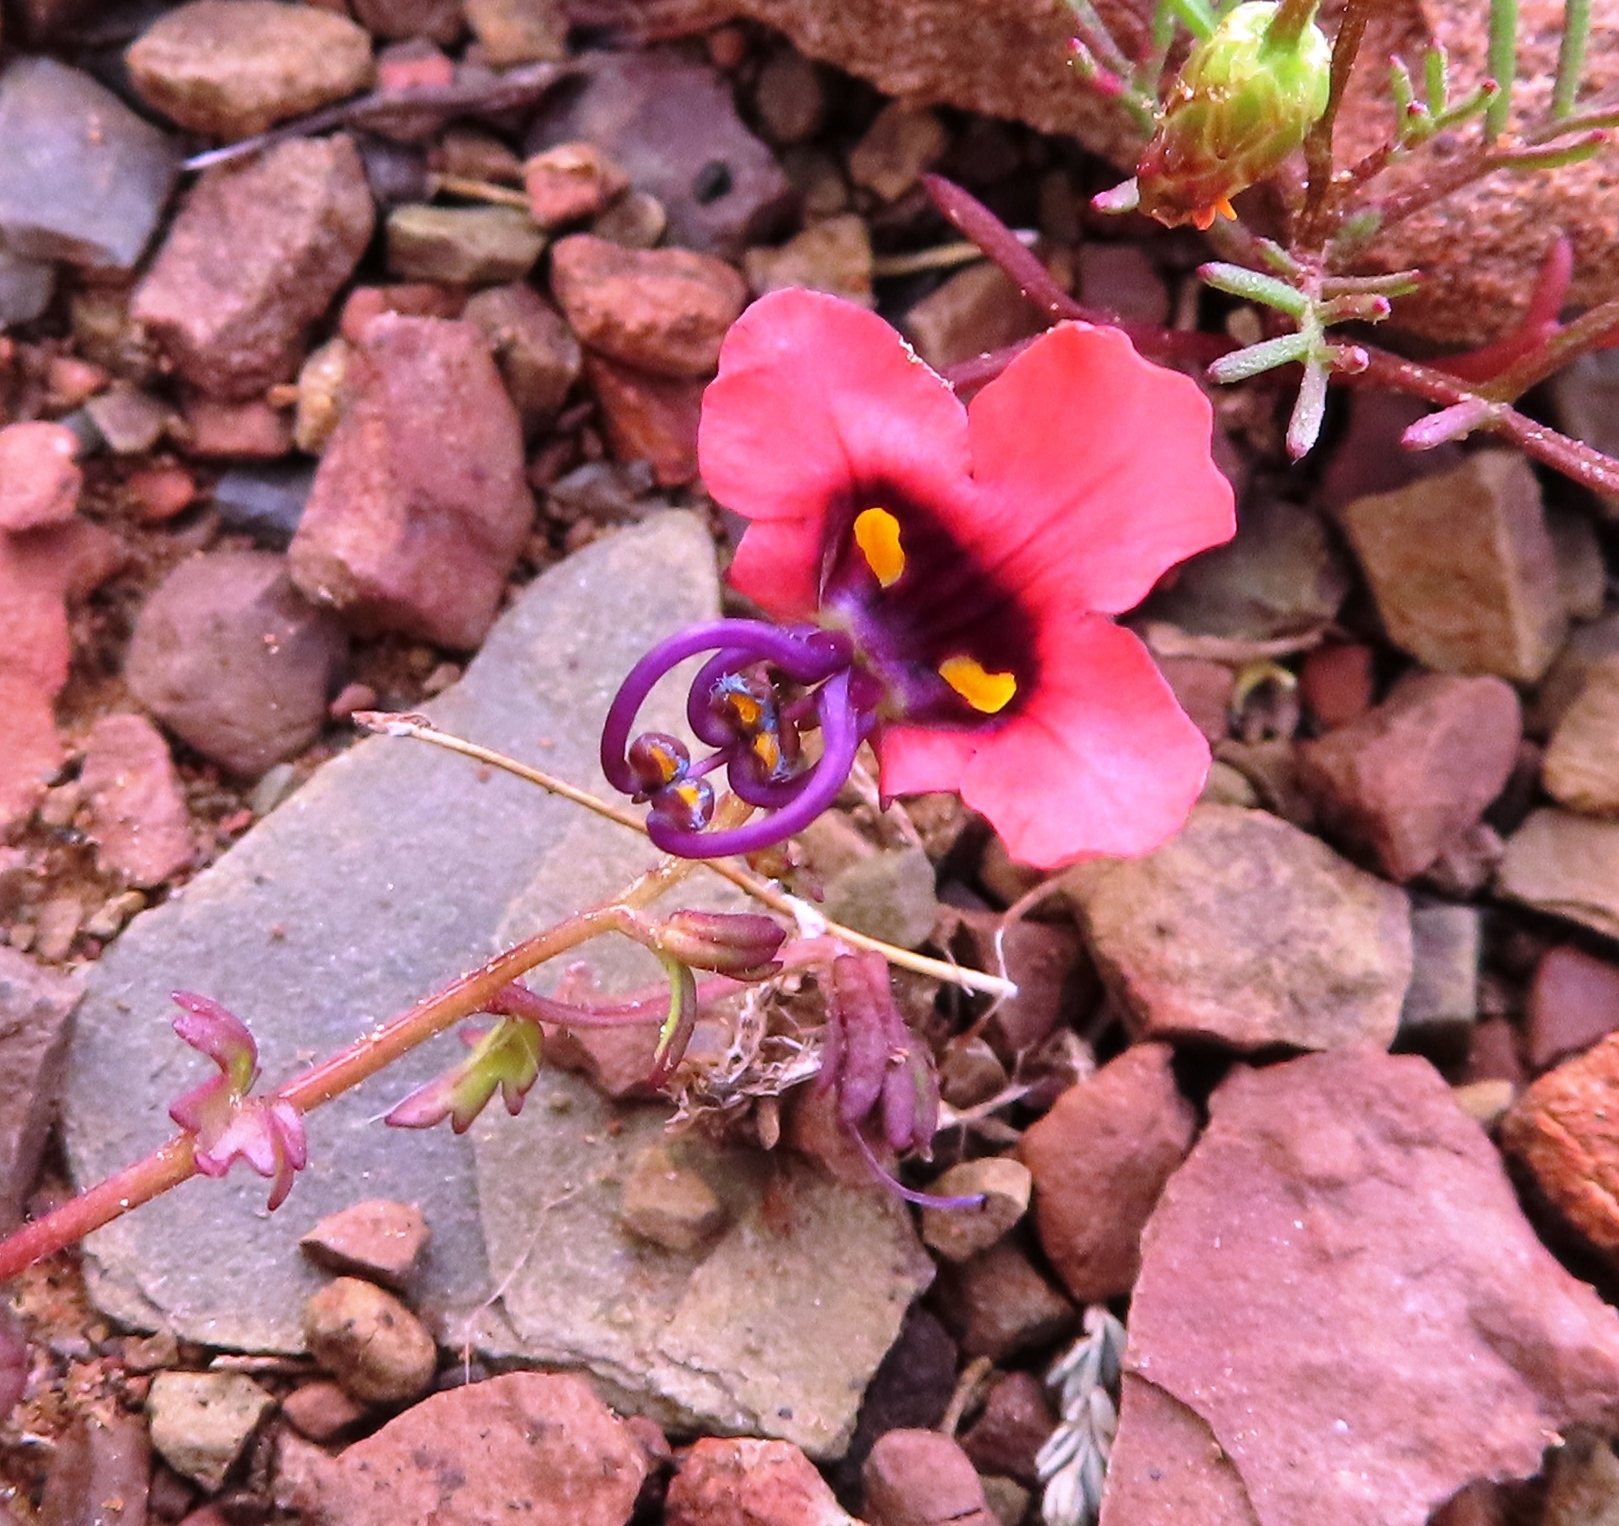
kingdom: Plantae
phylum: Tracheophyta
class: Magnoliopsida
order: Lamiales
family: Scrophulariaceae
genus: Alonsoa
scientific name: Alonsoa unilabiata
